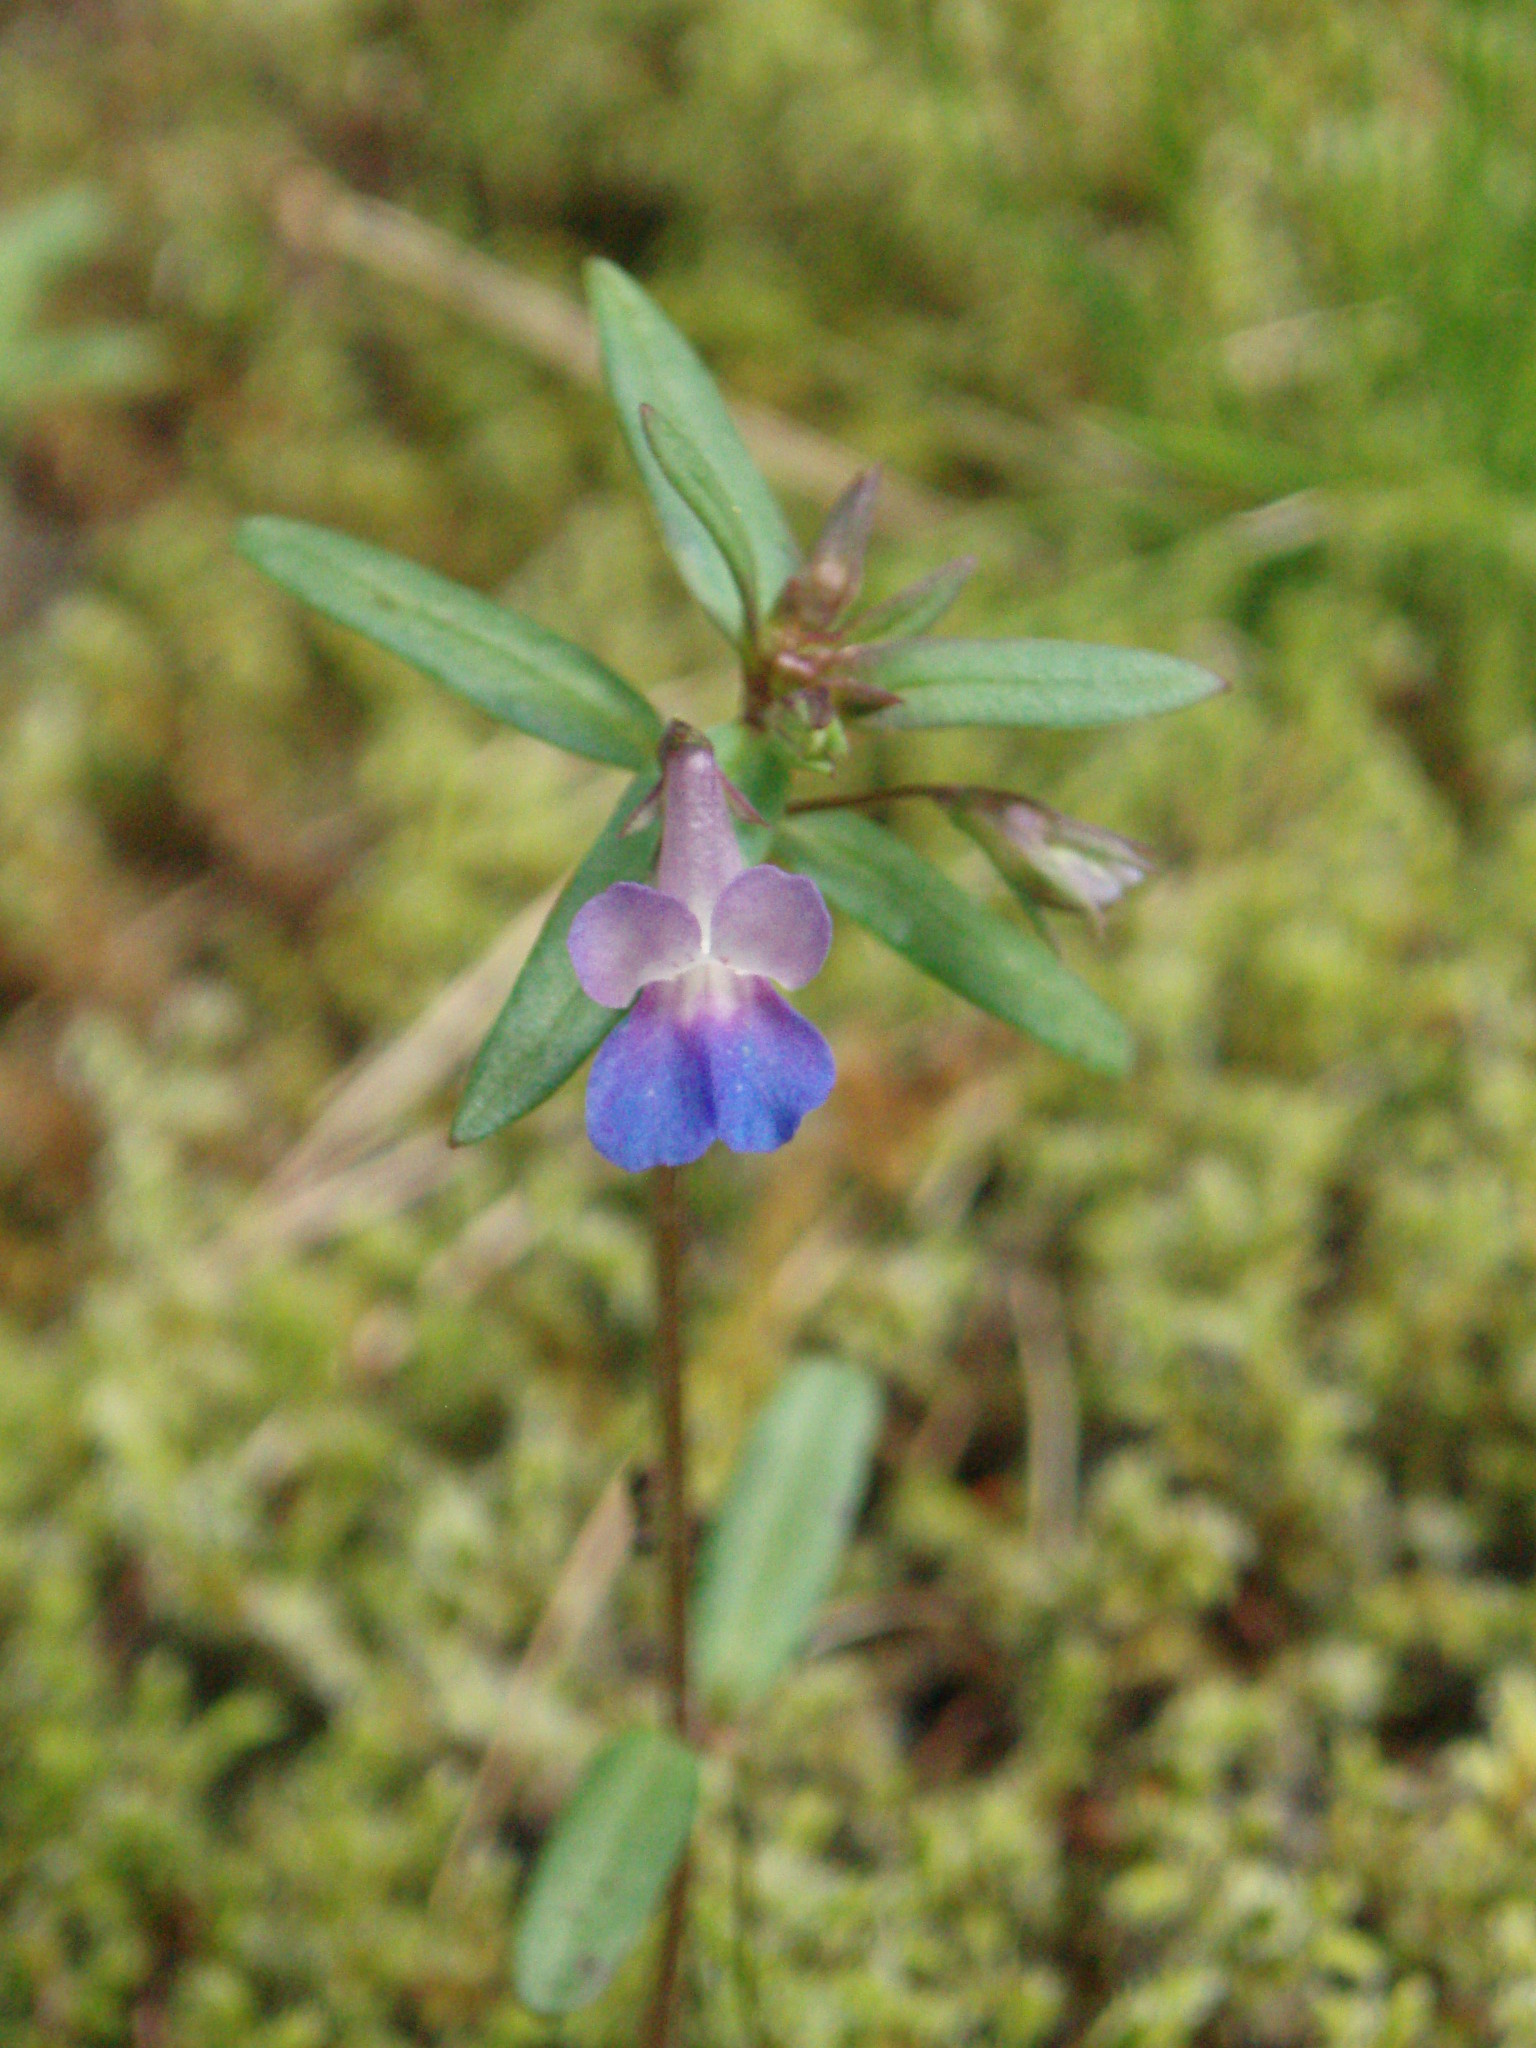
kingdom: Plantae
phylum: Tracheophyta
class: Magnoliopsida
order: Lamiales
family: Plantaginaceae
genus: Collinsia
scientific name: Collinsia parviflora
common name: Blue-lips
